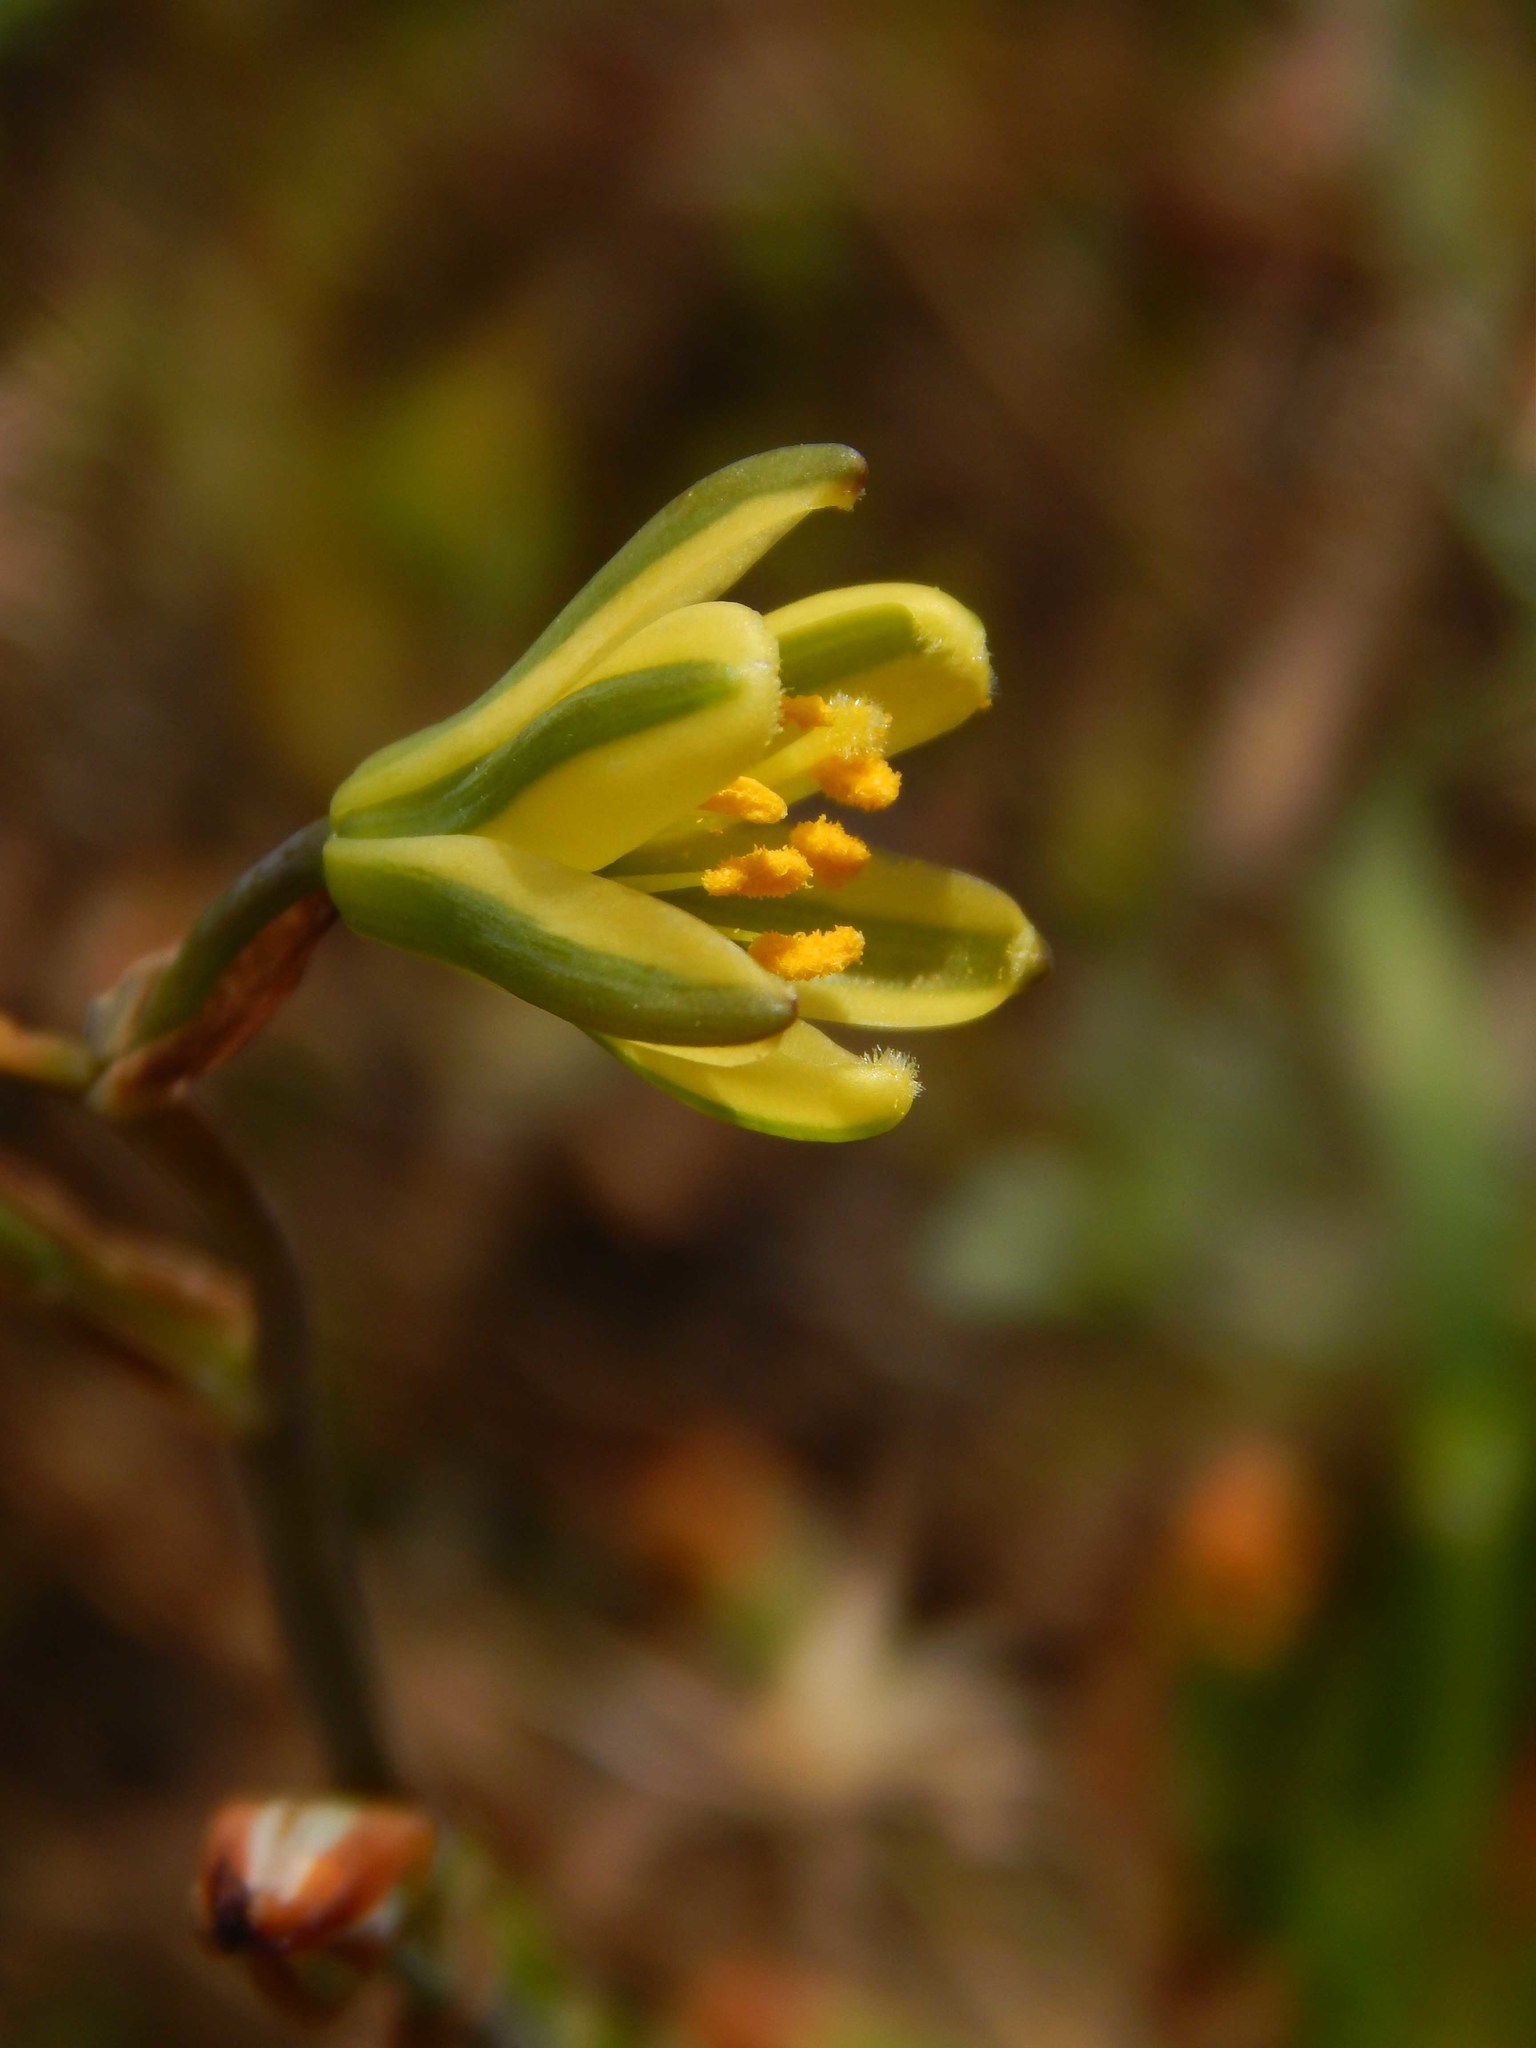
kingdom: Plantae
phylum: Tracheophyta
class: Liliopsida
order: Asparagales
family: Asparagaceae
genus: Albuca
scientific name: Albuca suaveolens
